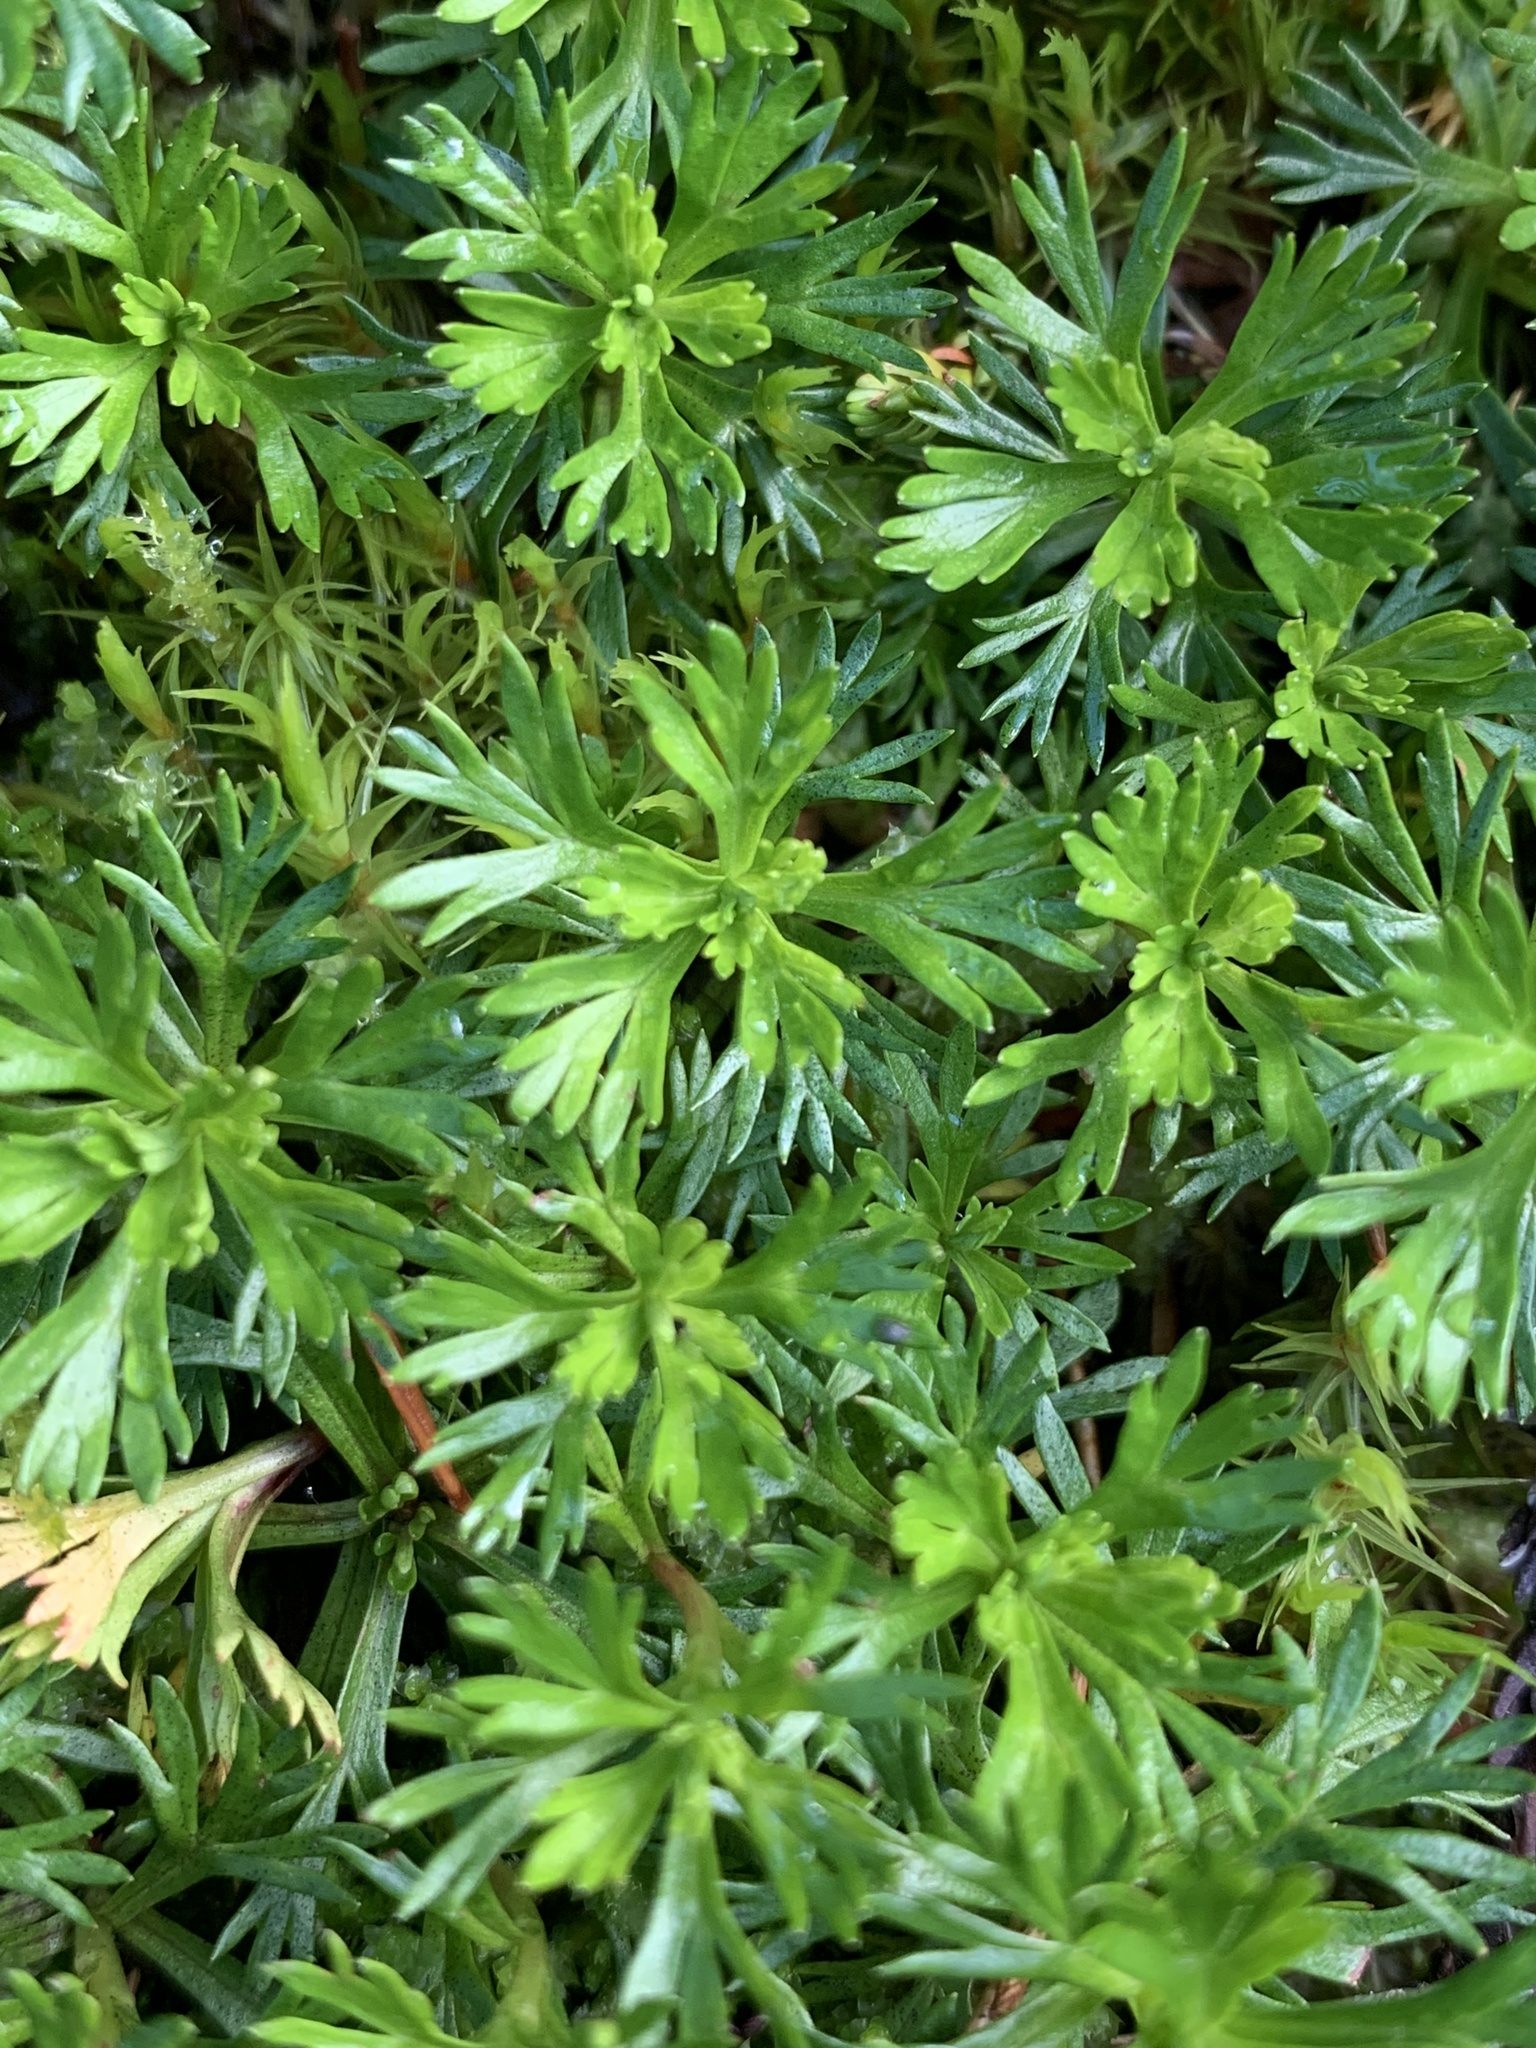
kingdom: Plantae
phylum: Tracheophyta
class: Magnoliopsida
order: Rosales
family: Rosaceae
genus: Luetkea
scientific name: Luetkea pectinata
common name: Partridgefoot
